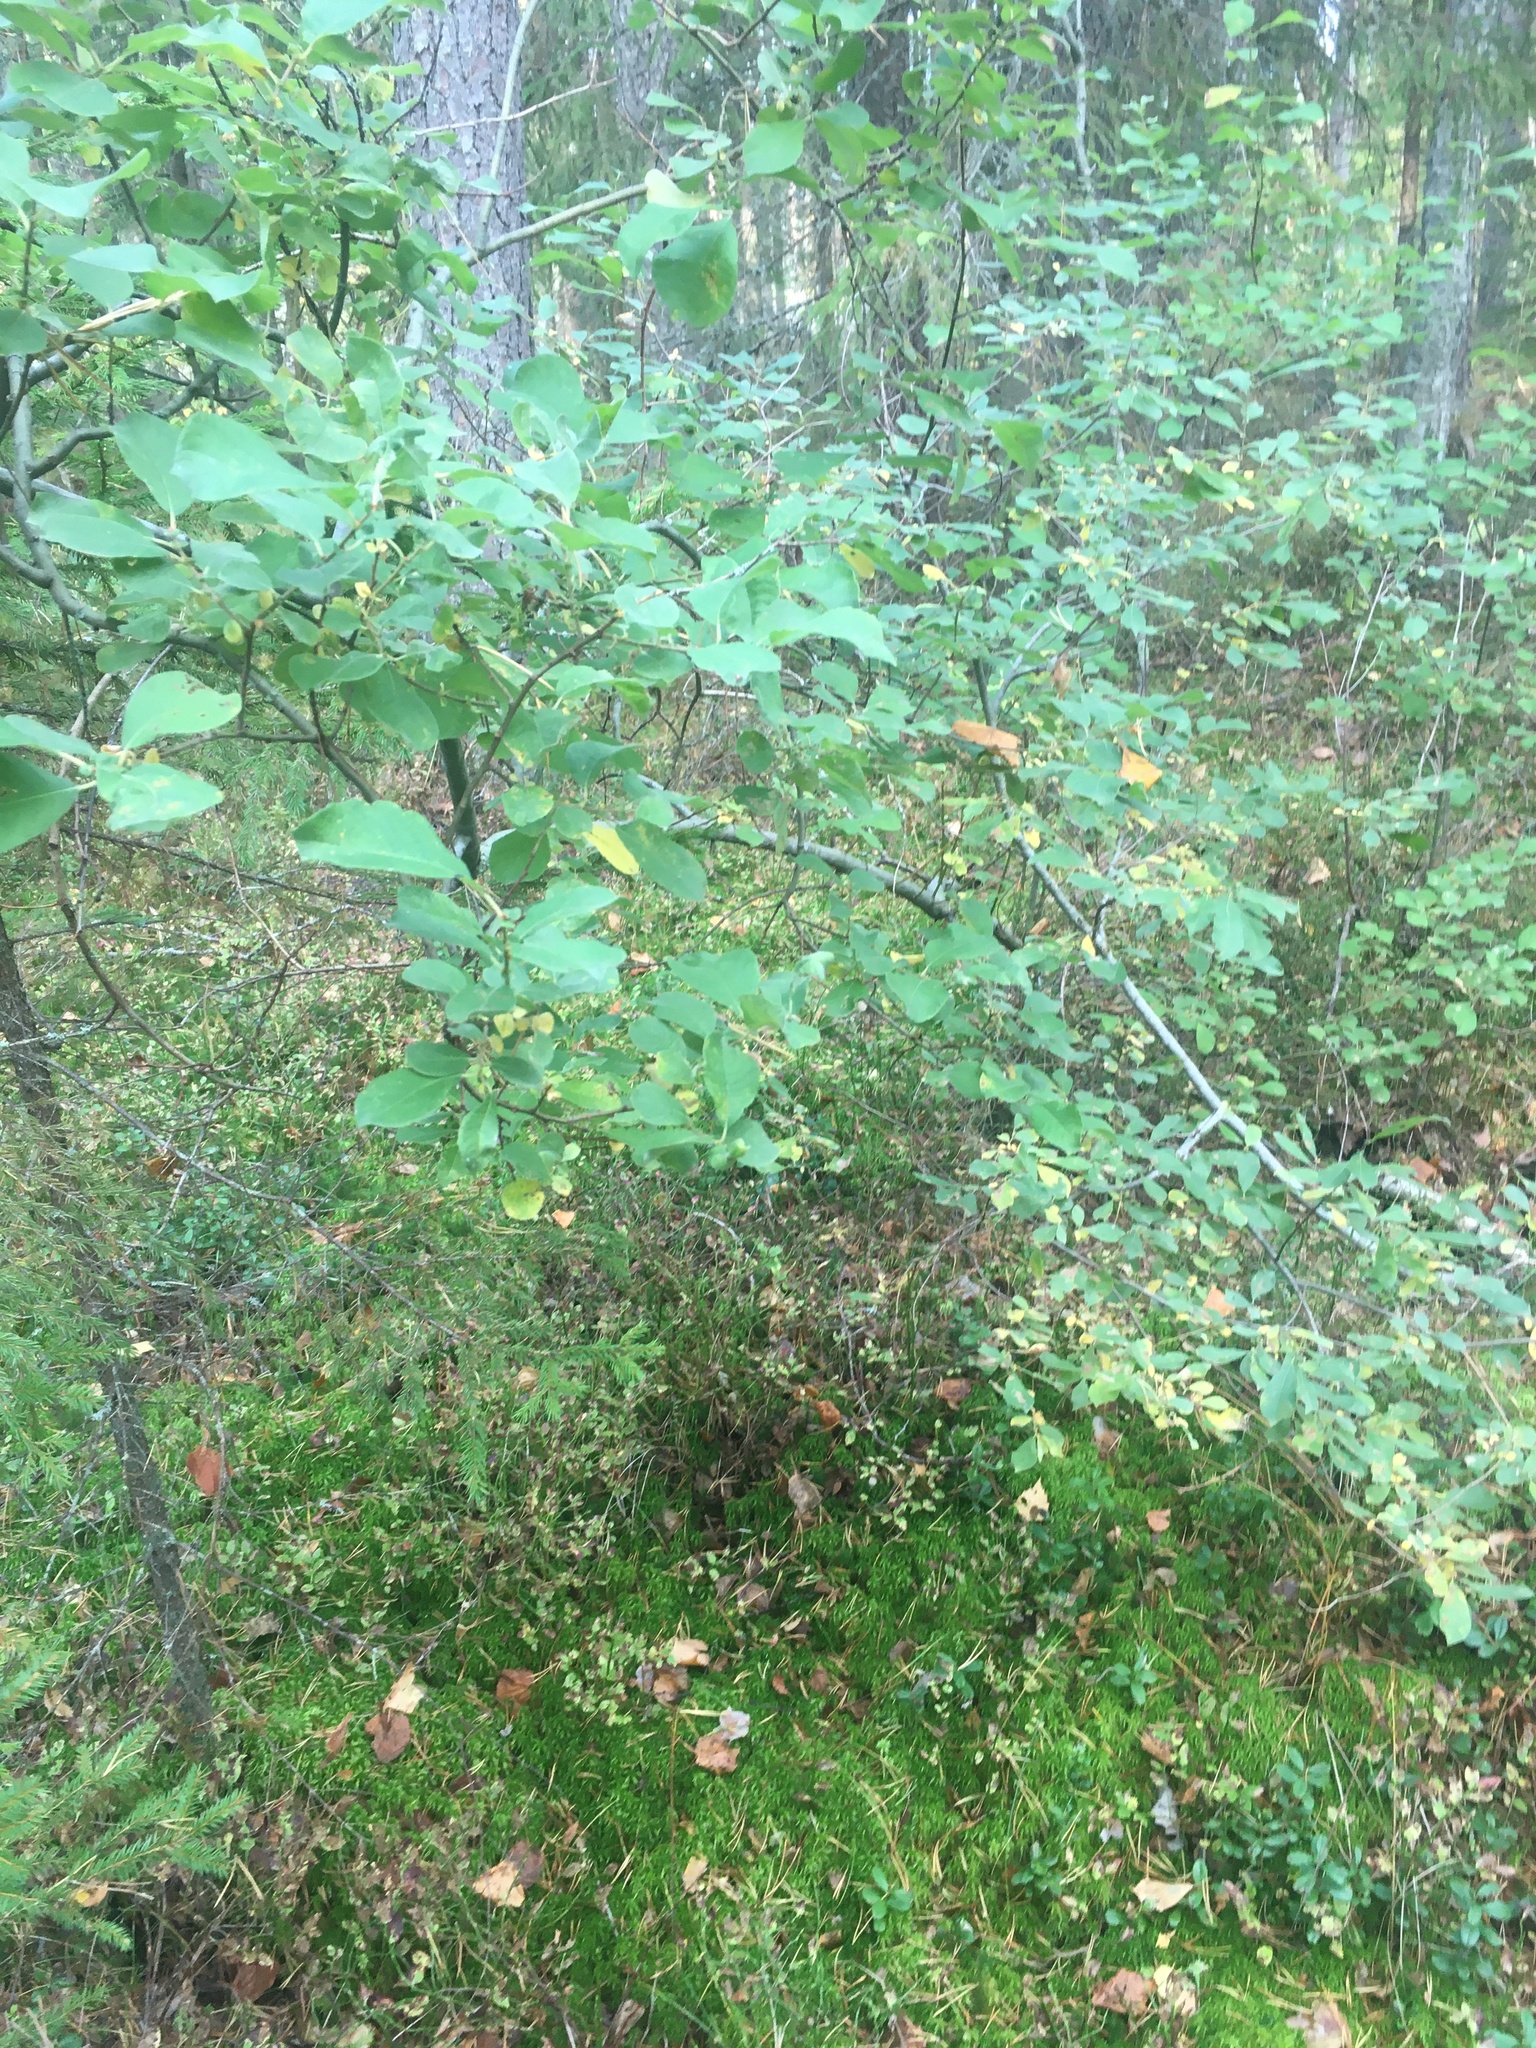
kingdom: Plantae
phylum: Tracheophyta
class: Magnoliopsida
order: Malpighiales
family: Salicaceae
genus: Salix
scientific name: Salix caprea
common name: Goat willow
